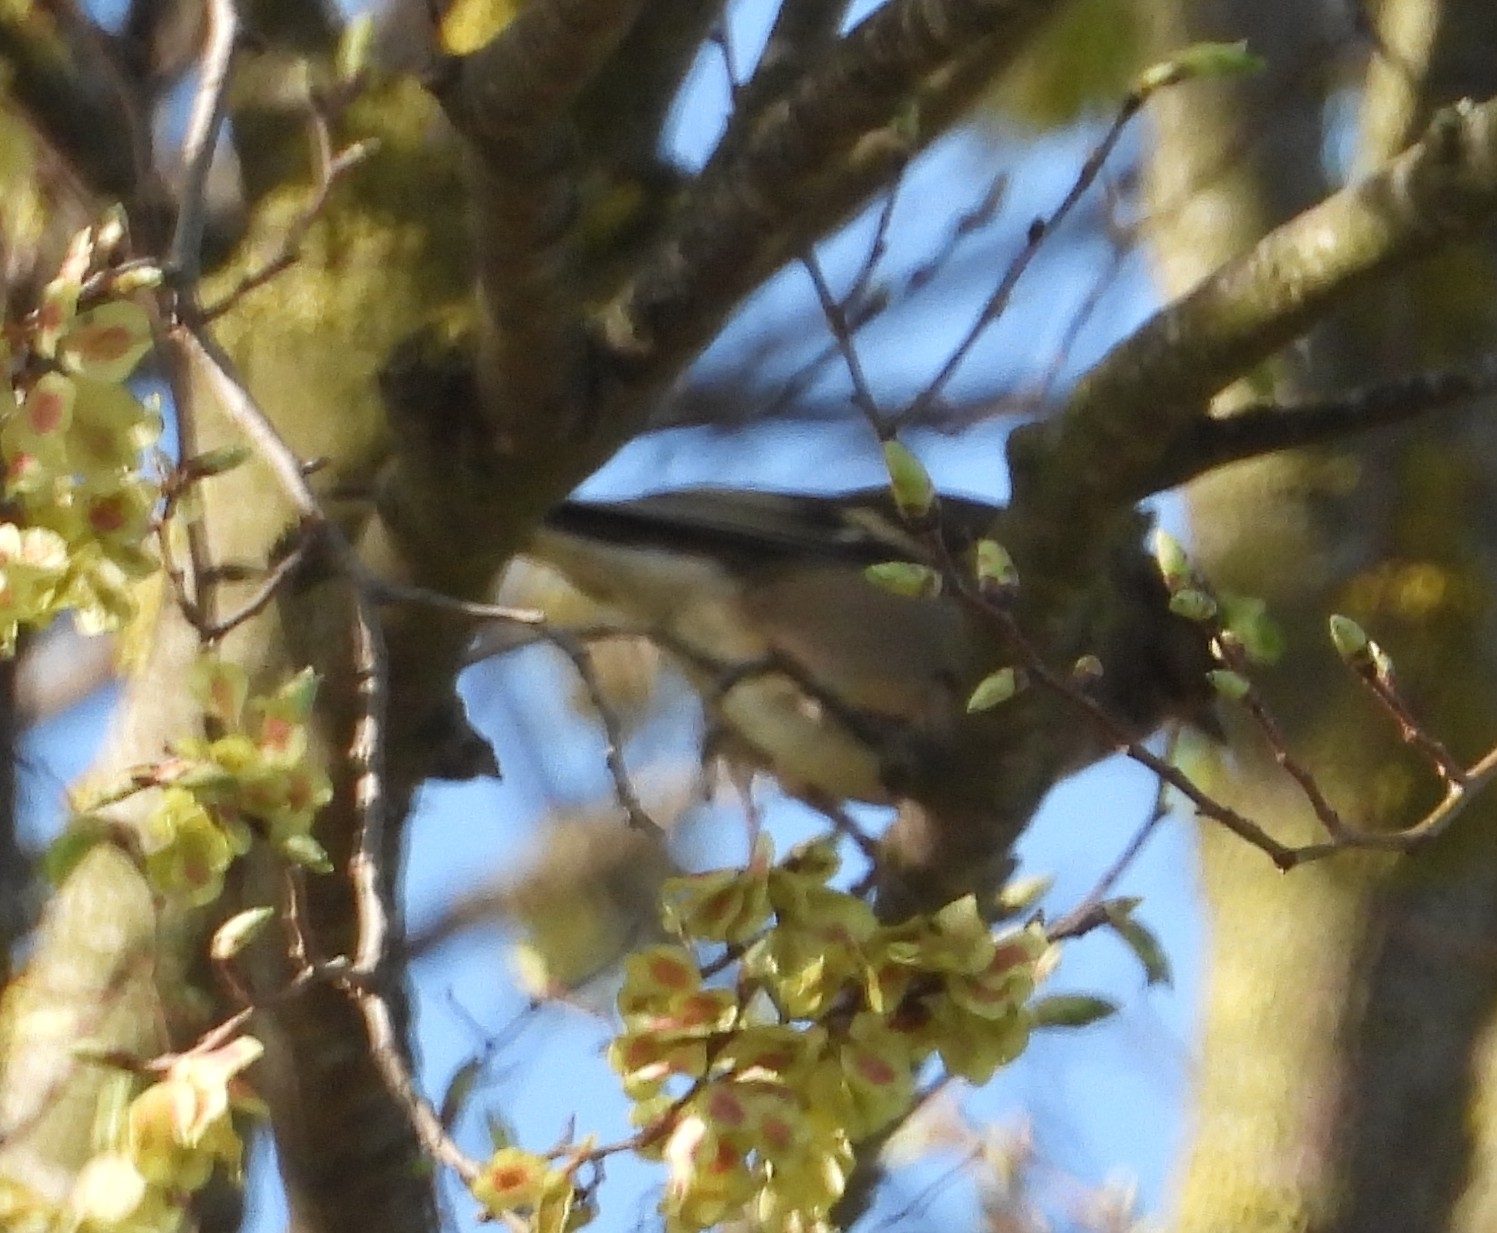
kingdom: Animalia
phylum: Chordata
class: Aves
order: Passeriformes
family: Fringillidae
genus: Fringilla
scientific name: Fringilla coelebs
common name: Common chaffinch
